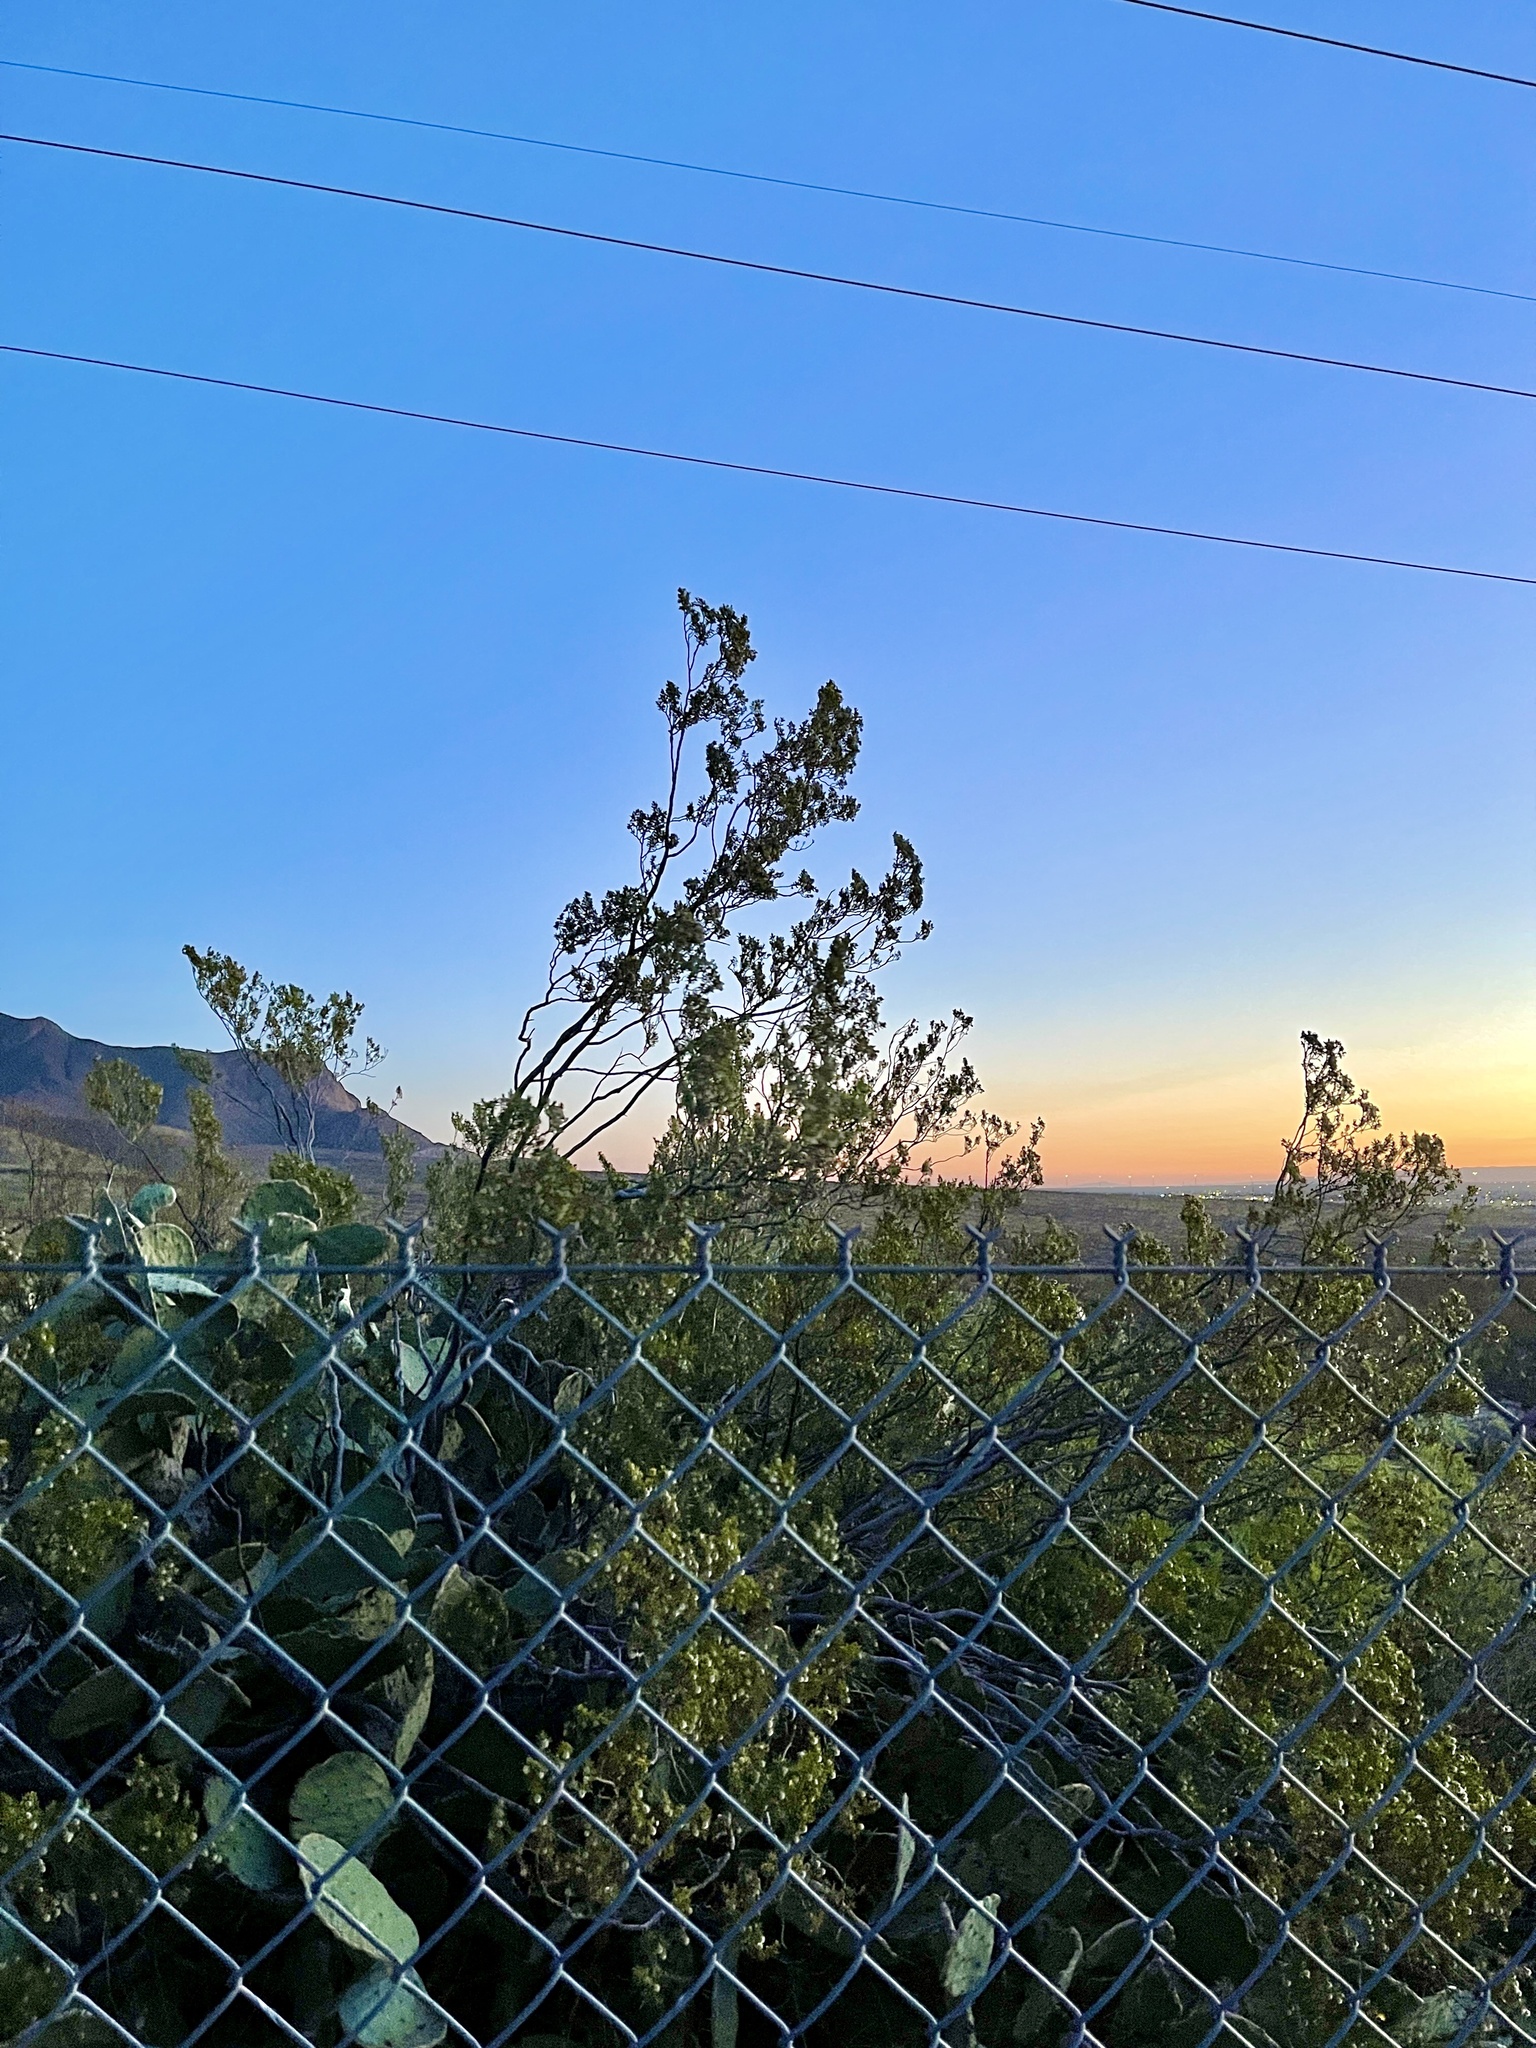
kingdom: Plantae
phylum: Tracheophyta
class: Magnoliopsida
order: Zygophyllales
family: Zygophyllaceae
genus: Larrea
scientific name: Larrea tridentata
